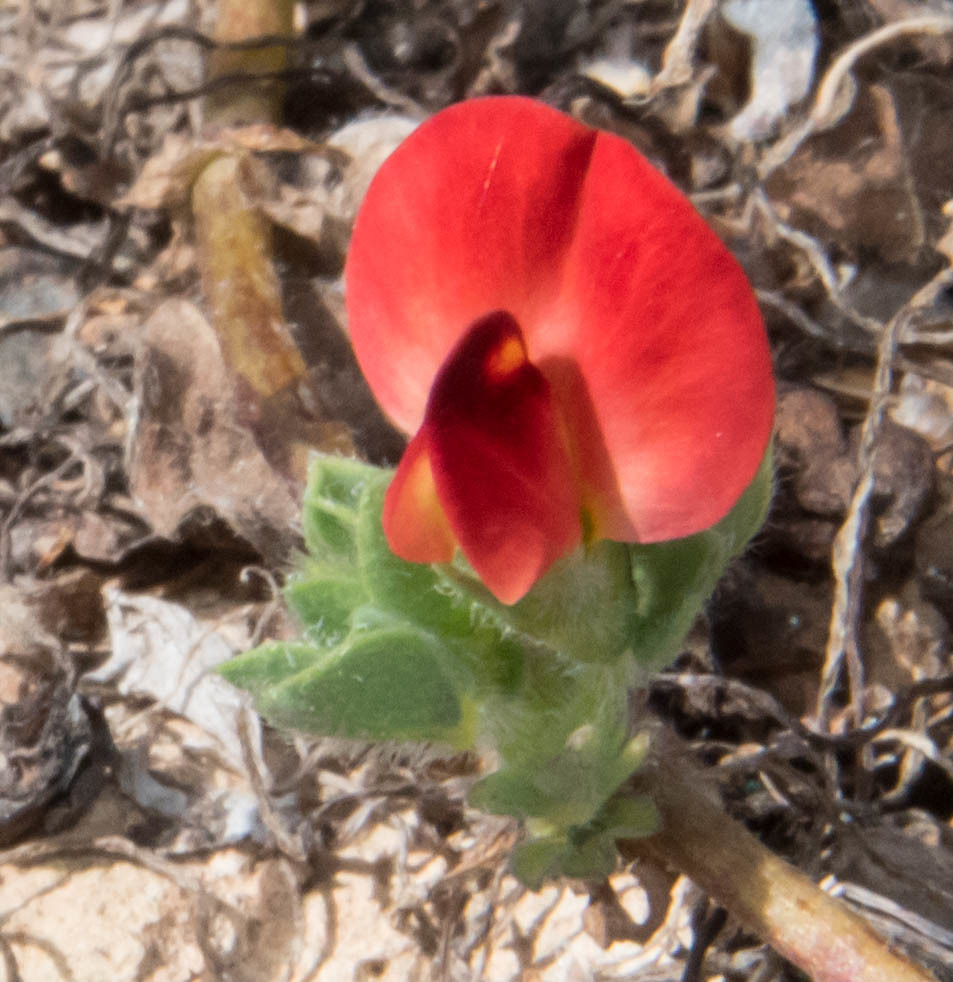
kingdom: Plantae
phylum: Tracheophyta
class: Magnoliopsida
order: Fabales
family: Fabaceae
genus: Lotus
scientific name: Lotus tetragonolobus
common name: Asparagus-pea
